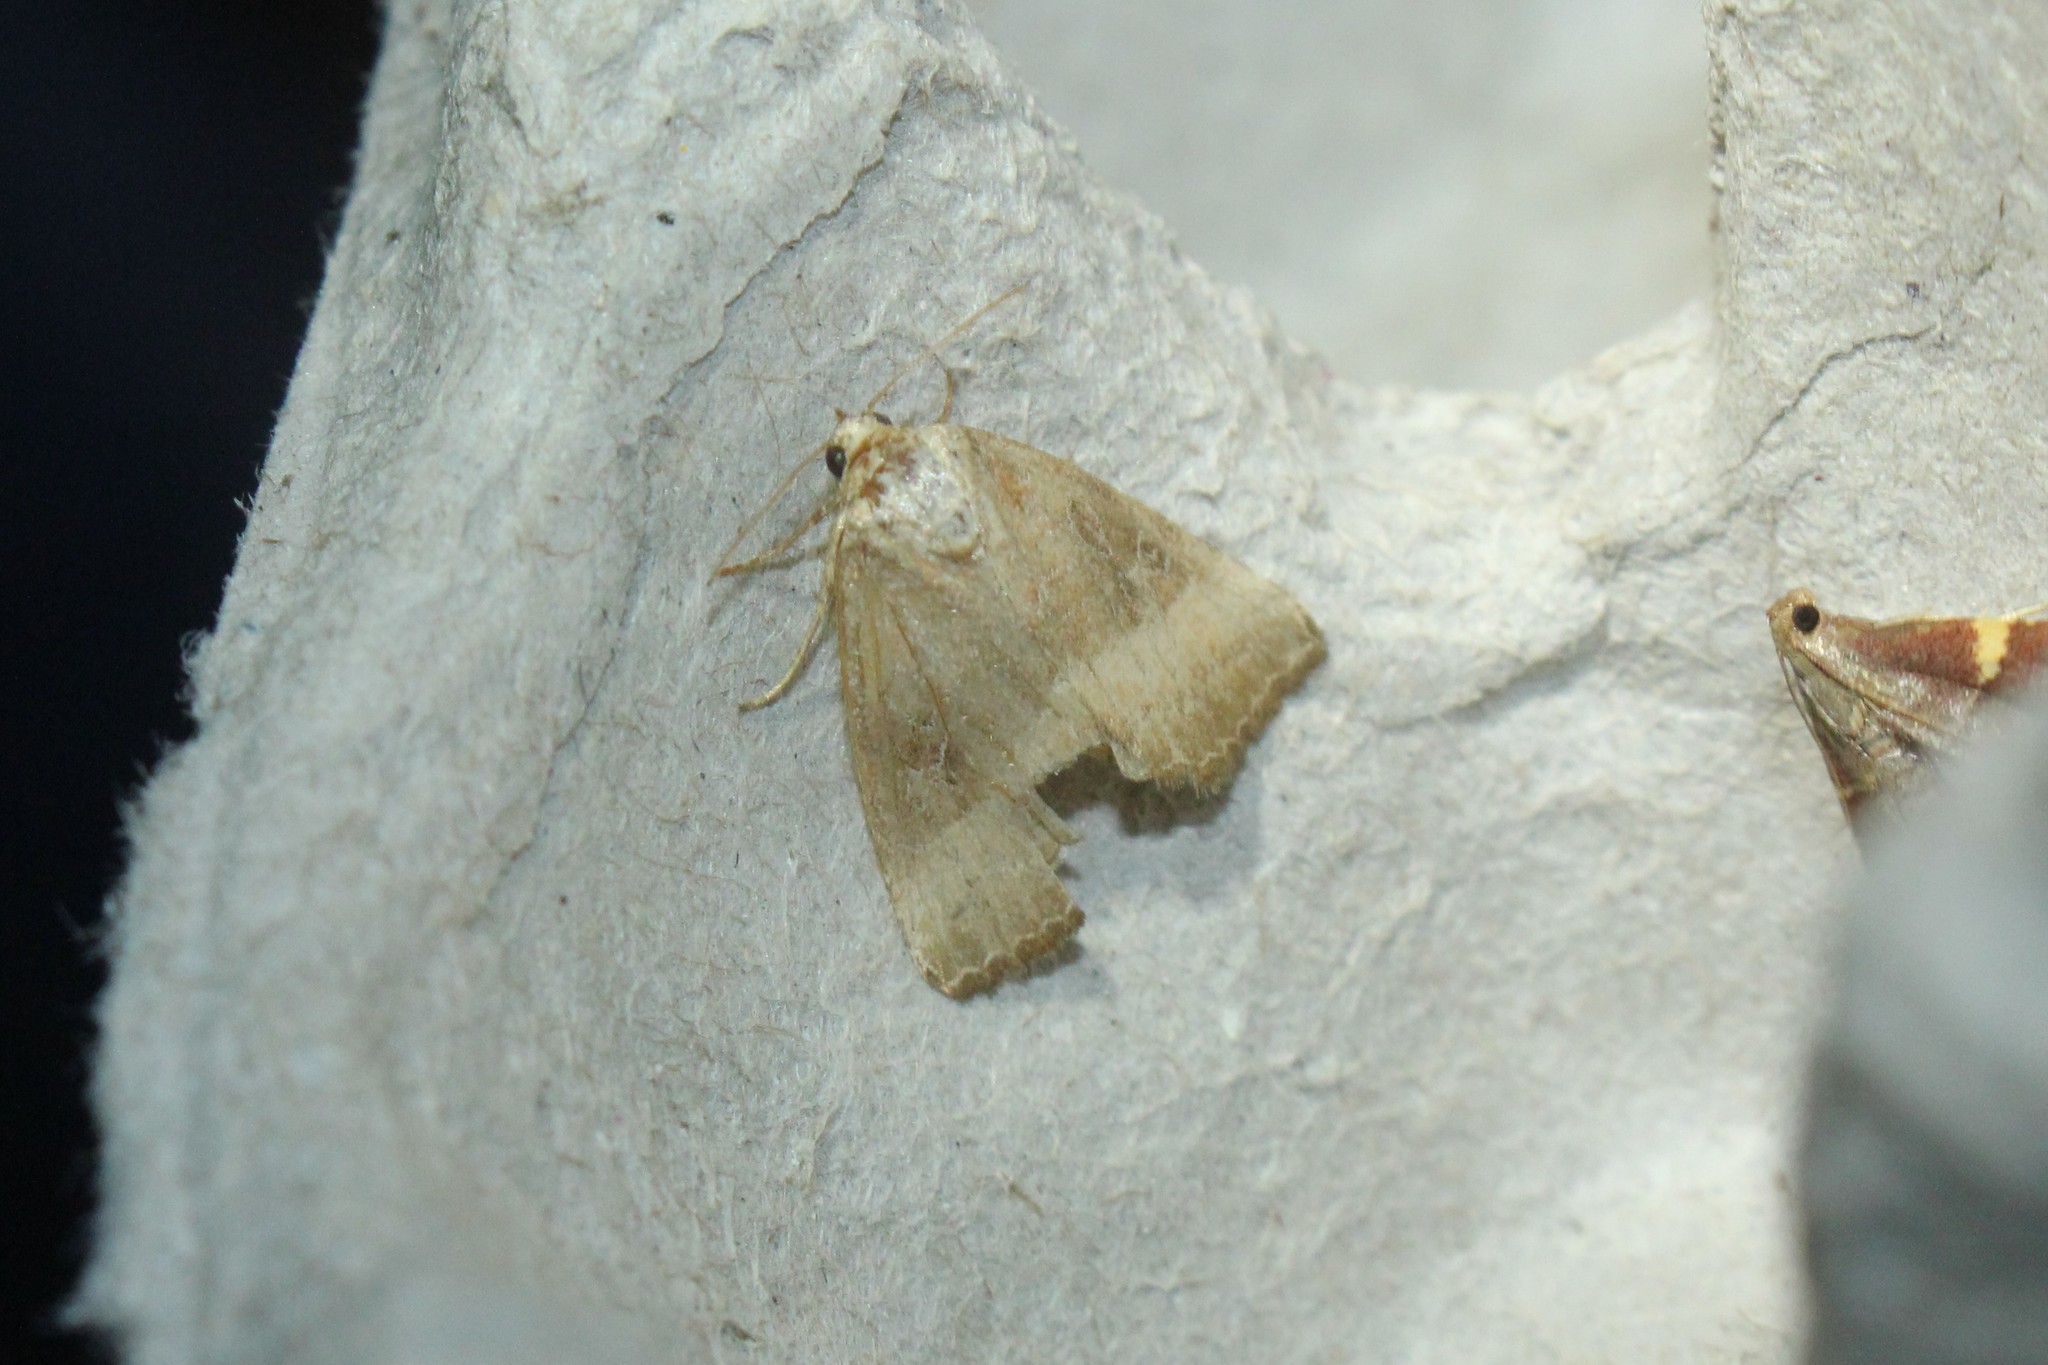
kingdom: Animalia
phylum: Arthropoda
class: Insecta
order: Lepidoptera
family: Noctuidae
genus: Ogdoconta
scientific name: Ogdoconta cinereola
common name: Common pinkband
